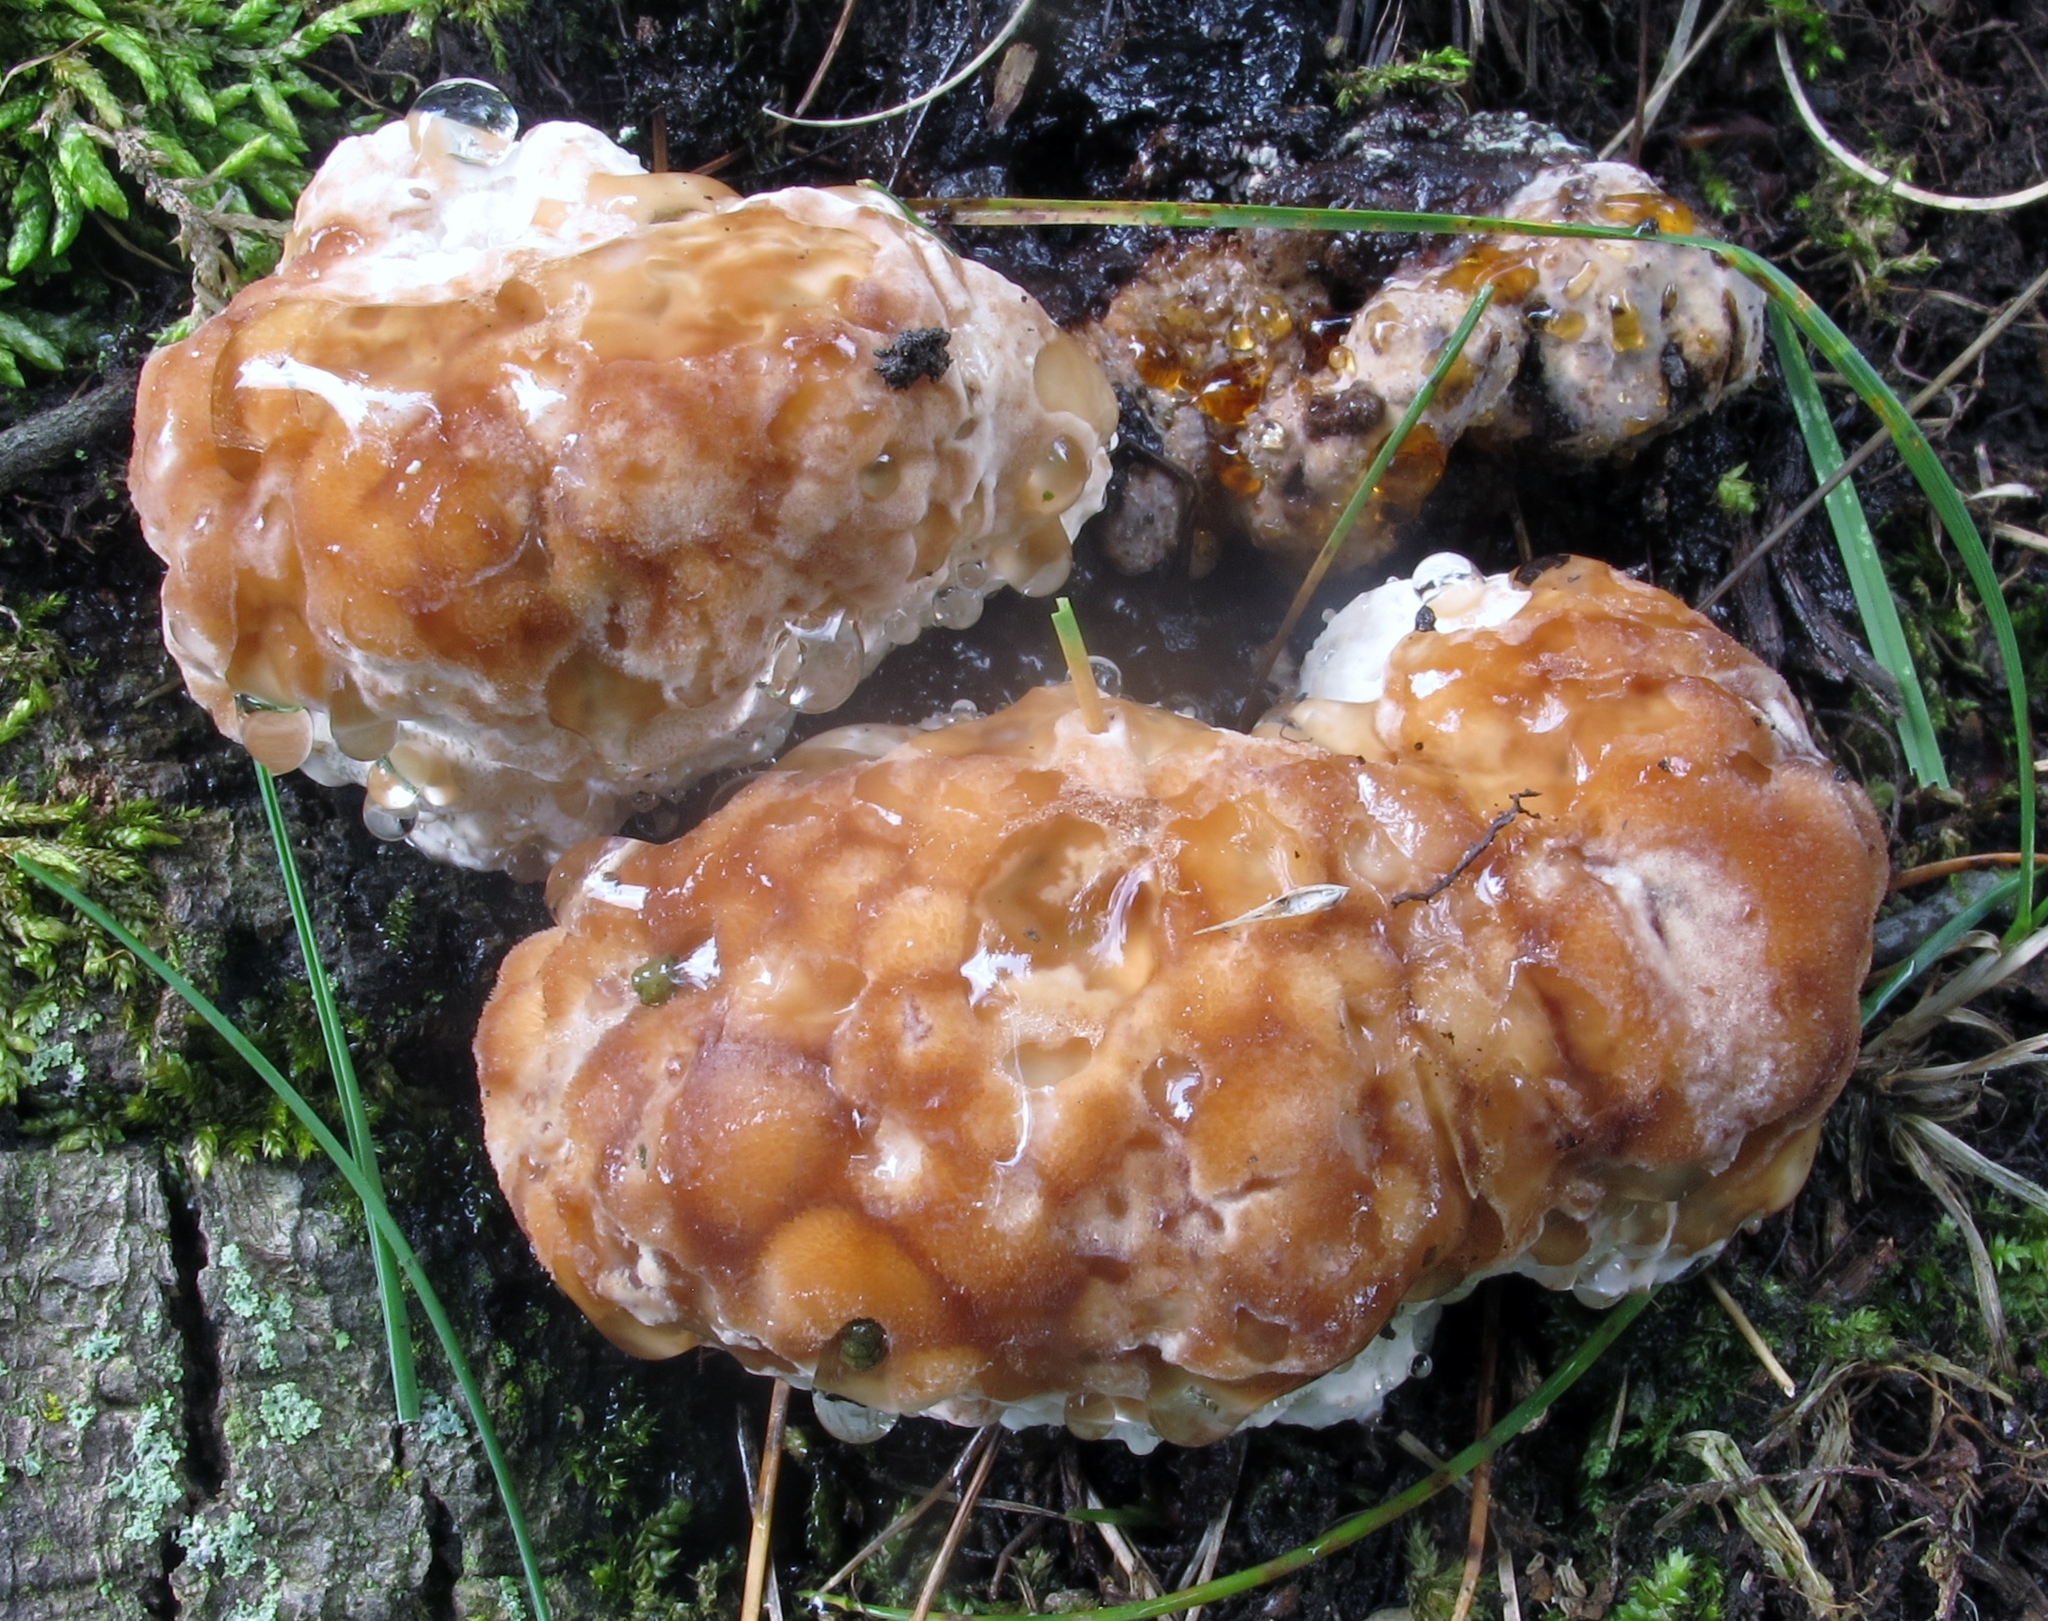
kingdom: Fungi
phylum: Basidiomycota
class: Agaricomycetes
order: Polyporales
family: Fomitopsidaceae
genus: Niveoporofomes
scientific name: Niveoporofomes spraguei
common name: Green cheese polypore
